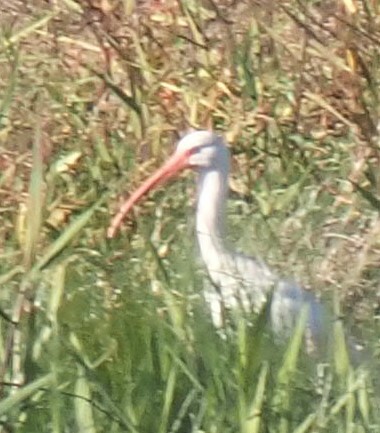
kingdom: Animalia
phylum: Chordata
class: Aves
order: Pelecaniformes
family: Threskiornithidae
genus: Eudocimus
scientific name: Eudocimus albus
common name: White ibis
